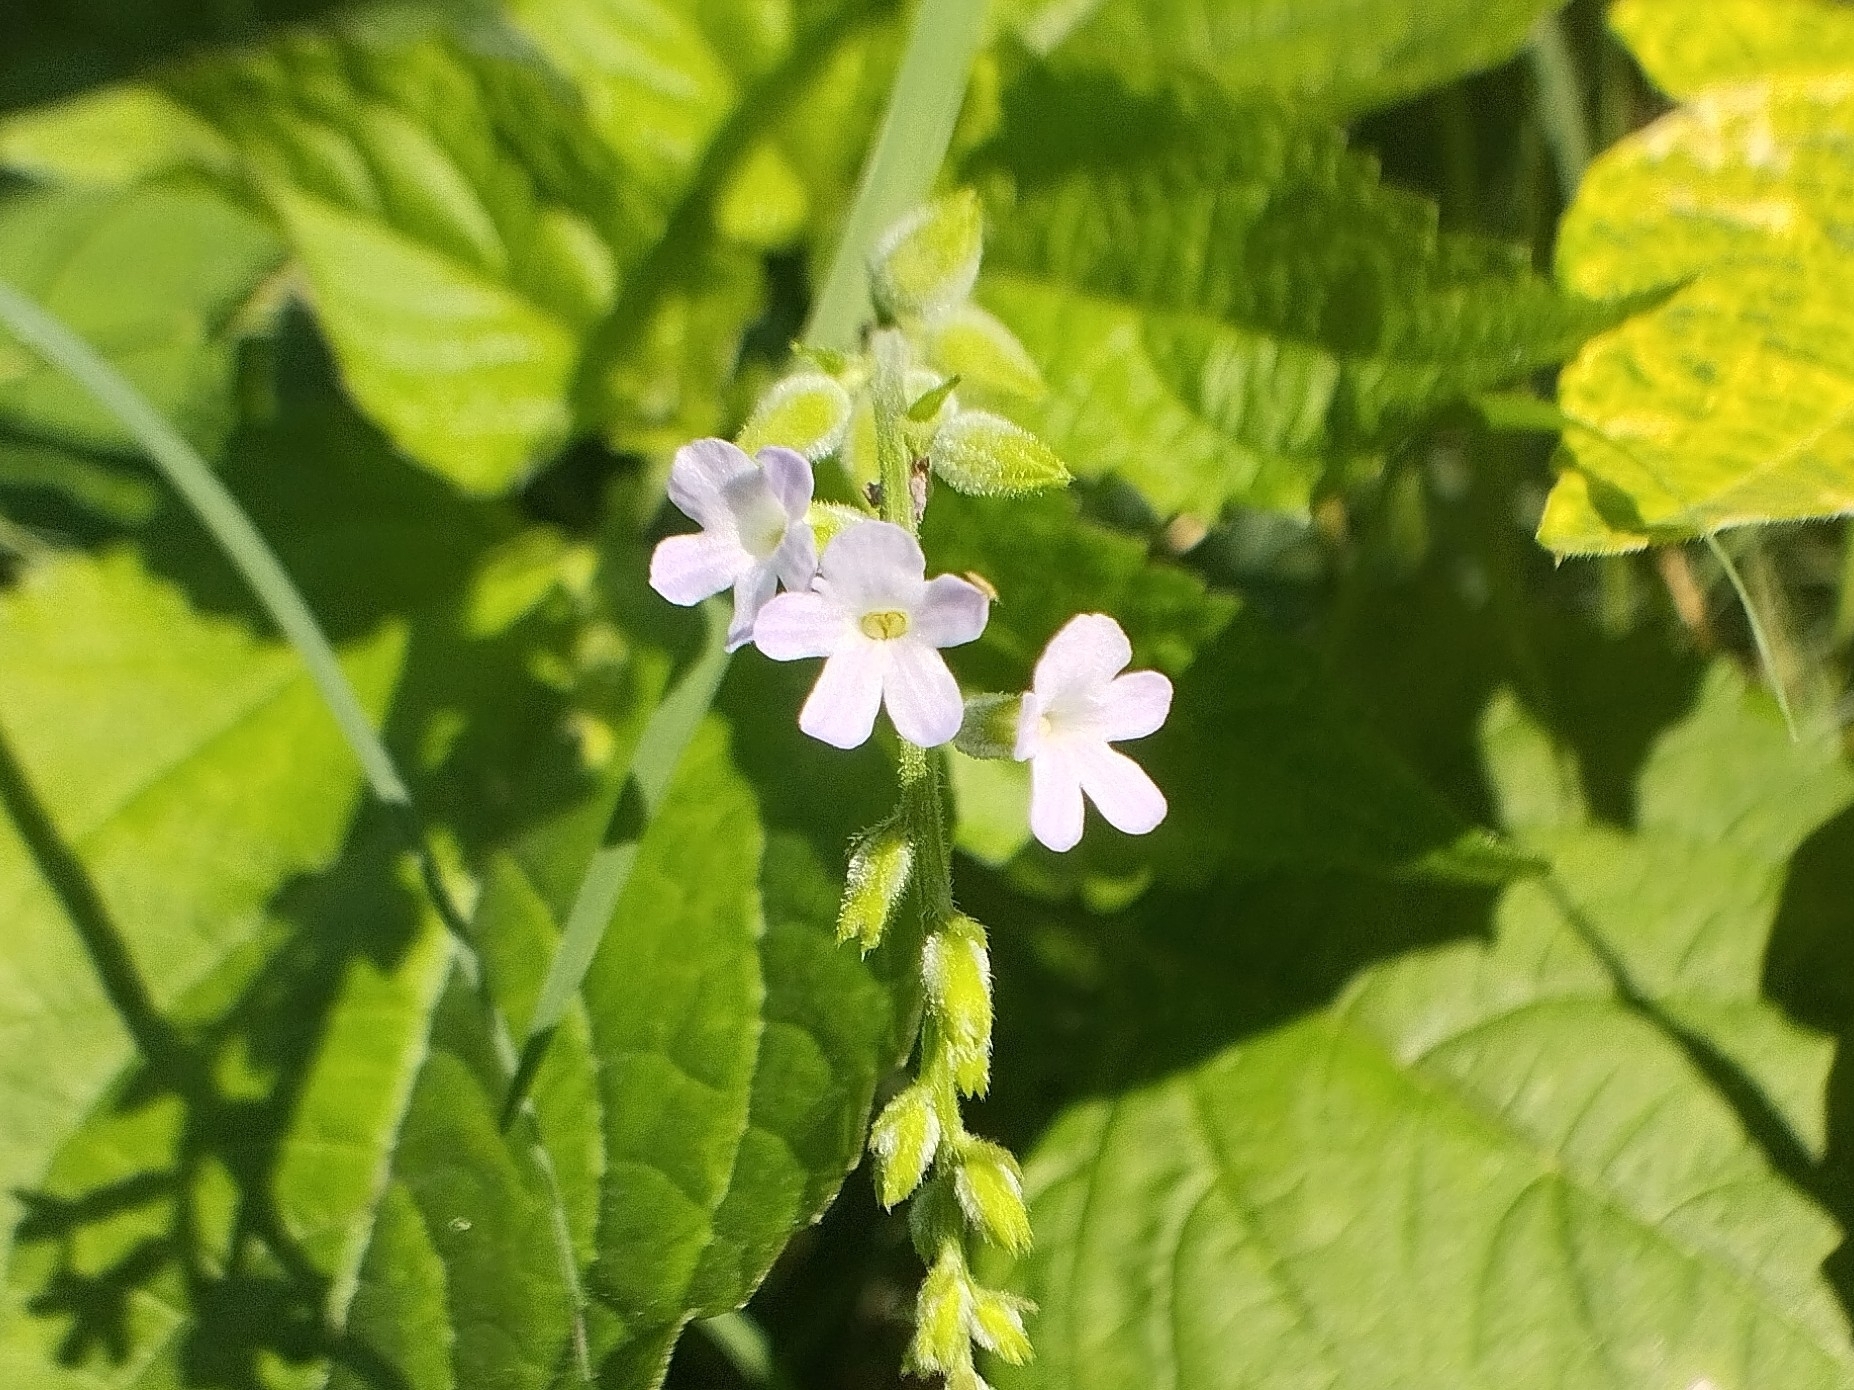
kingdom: Plantae
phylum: Tracheophyta
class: Magnoliopsida
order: Lamiales
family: Verbenaceae
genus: Priva
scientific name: Priva lappulacea
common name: Fasten-'pon-coat
